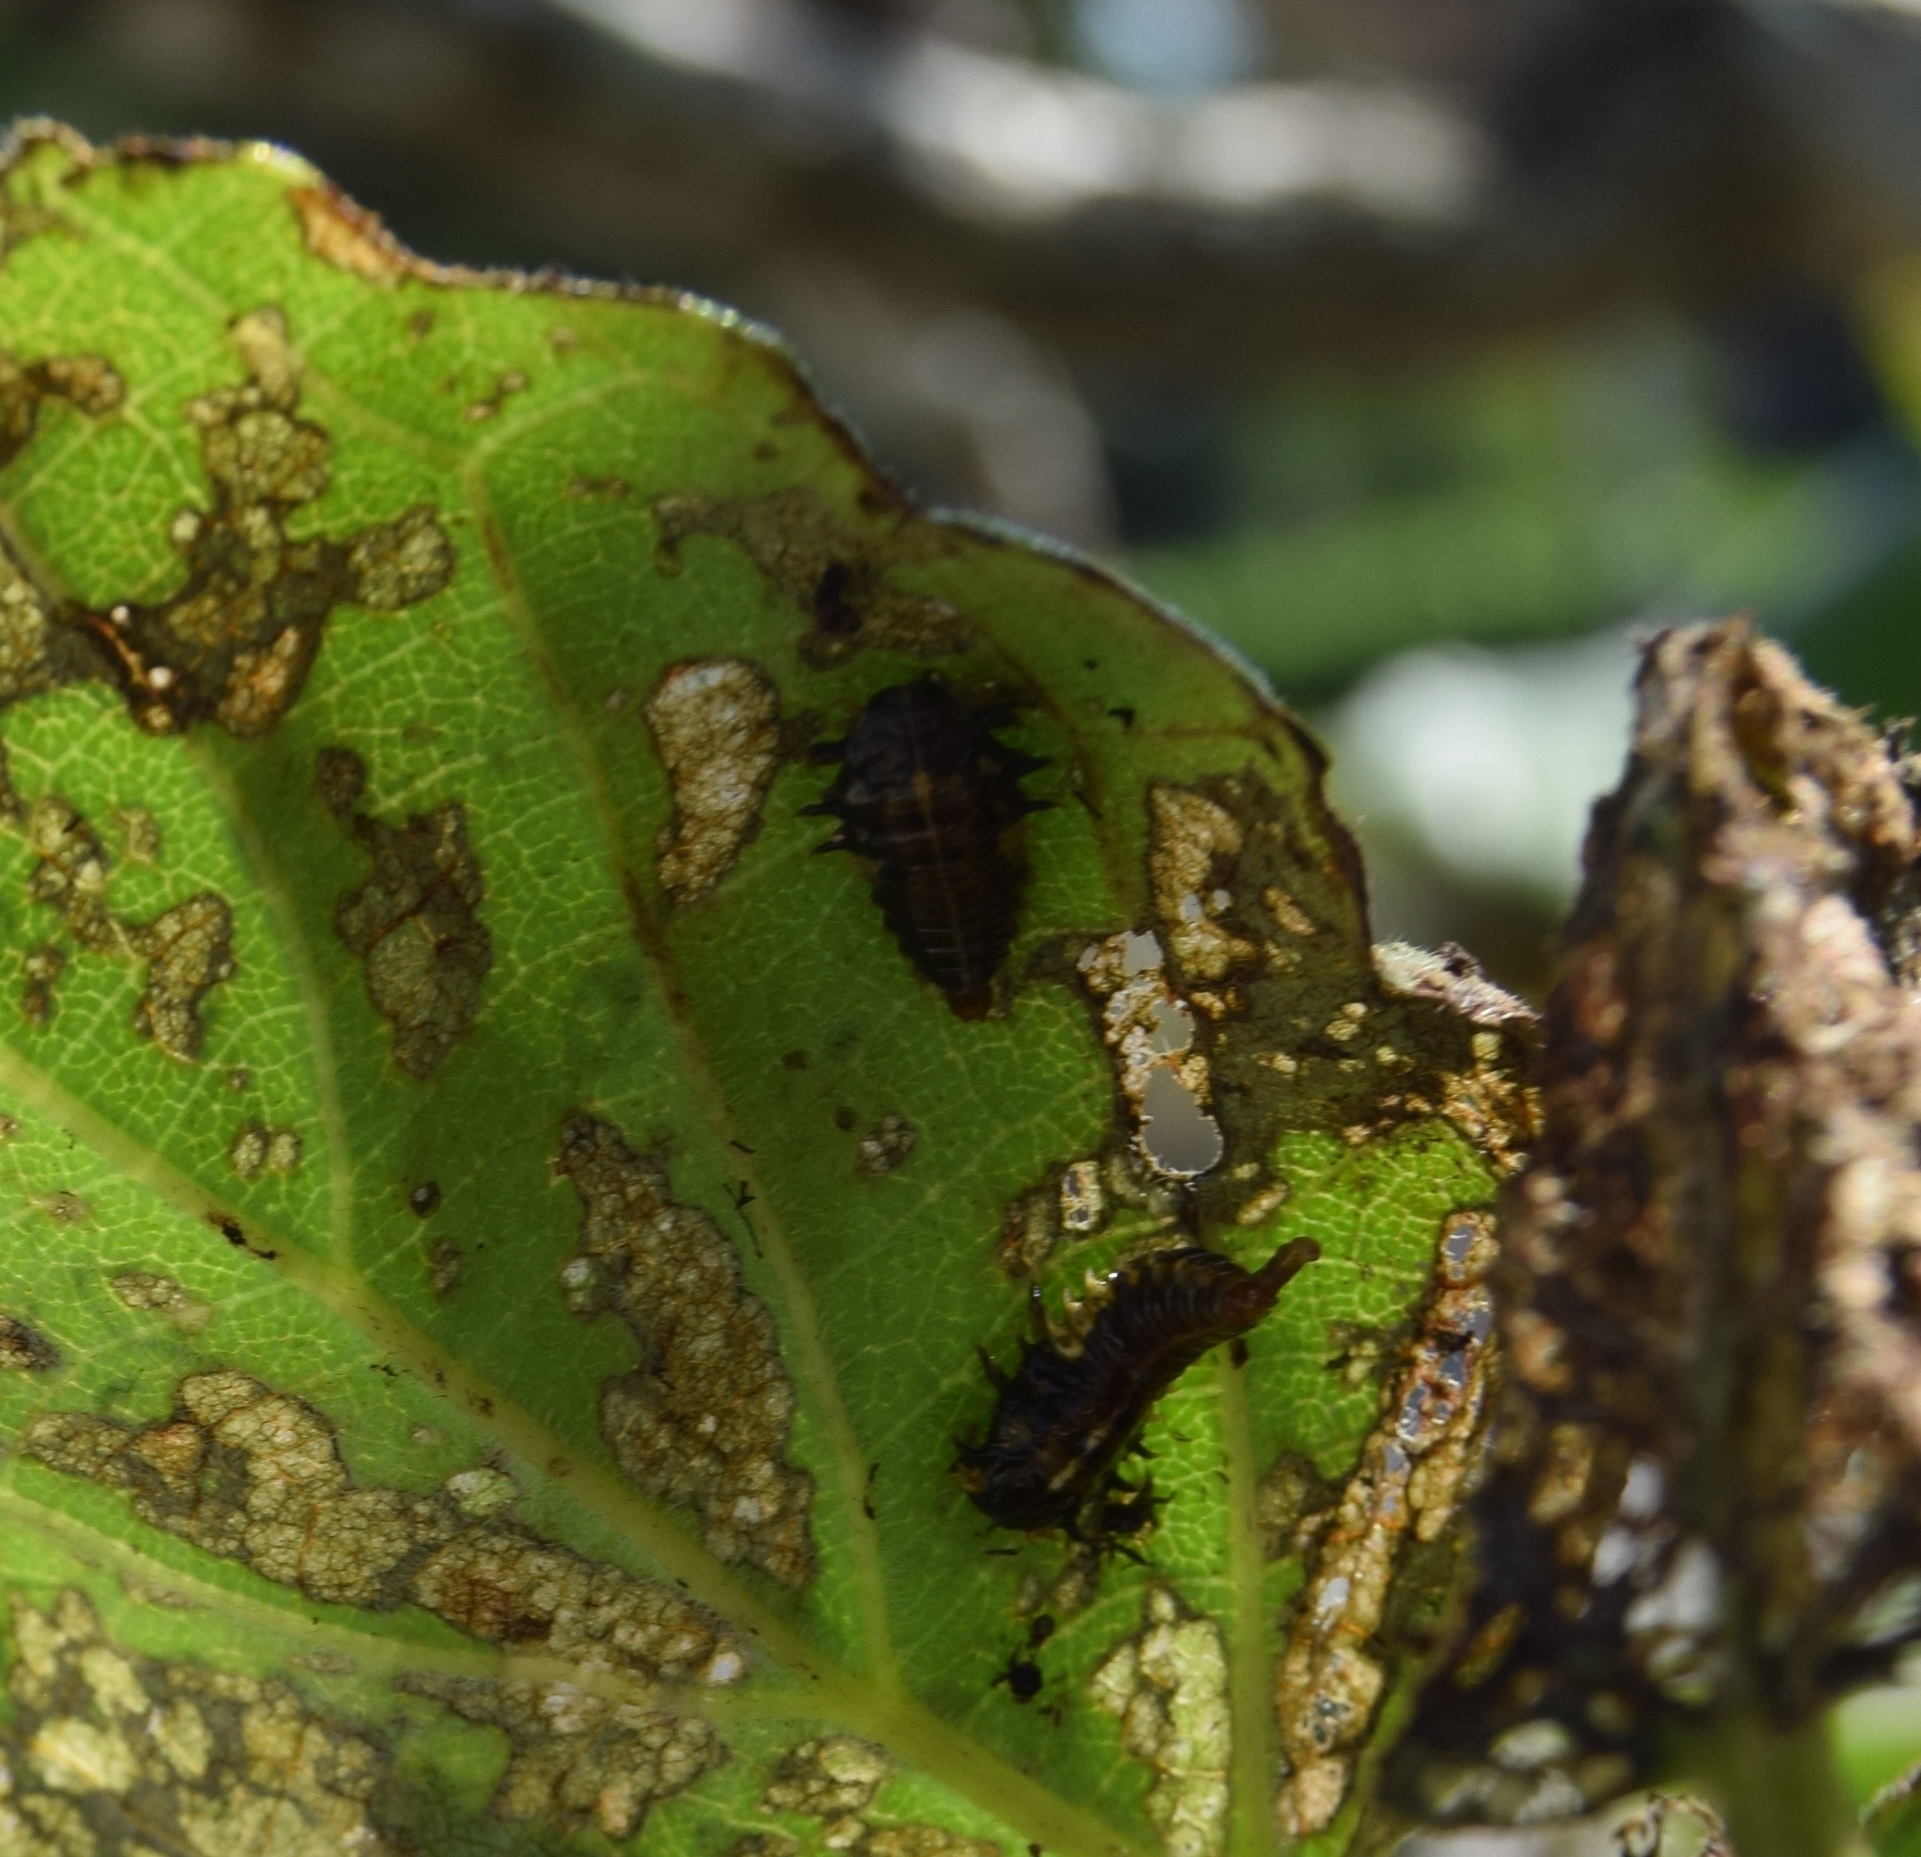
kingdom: Animalia
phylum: Arthropoda
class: Insecta
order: Coleoptera
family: Chrysomelidae
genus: Eurypepla
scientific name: Eurypepla calochroma
